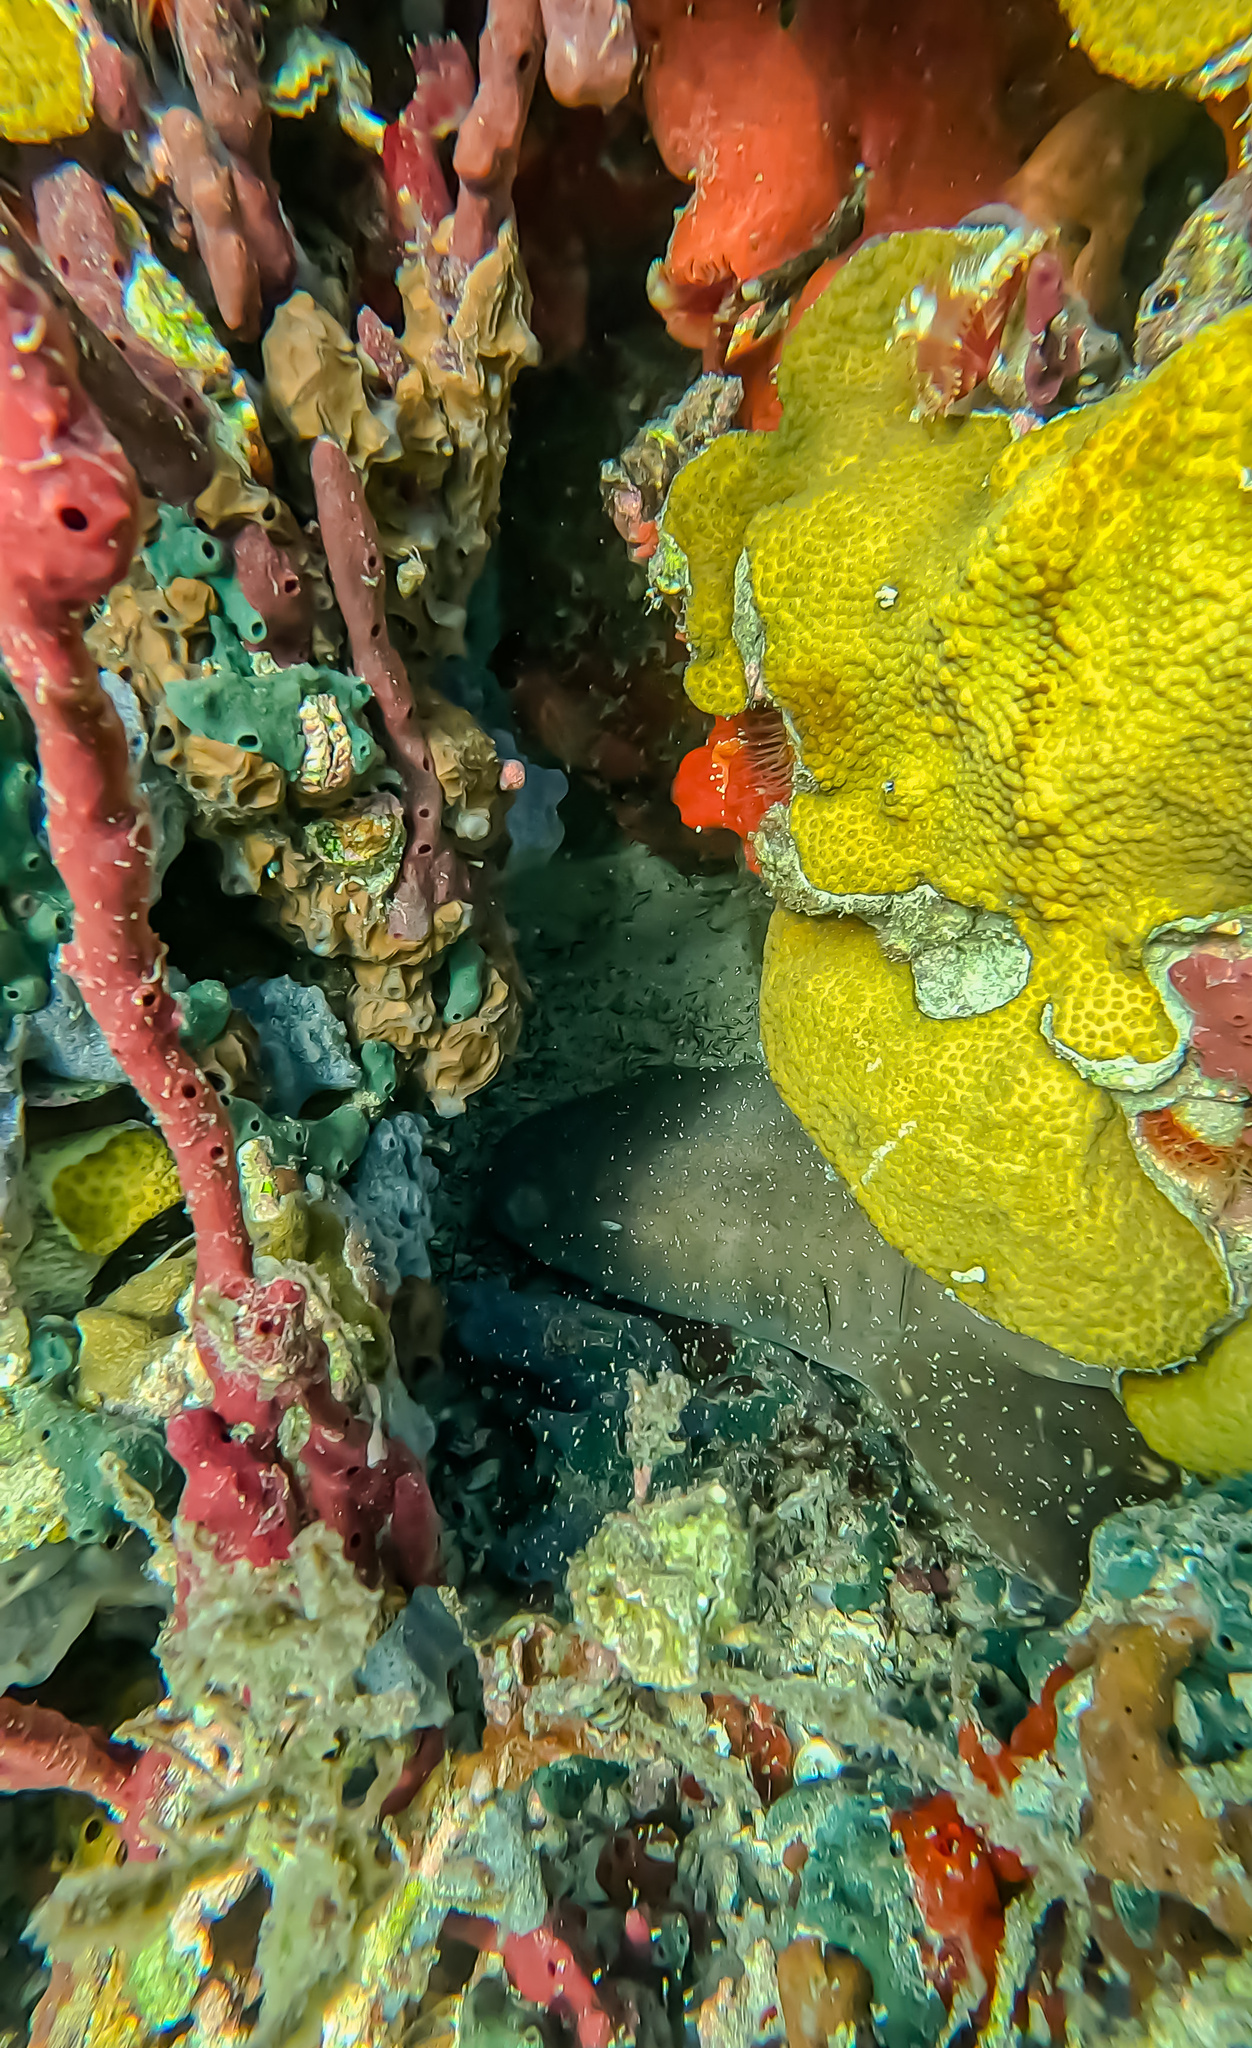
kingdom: Animalia
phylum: Chordata
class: Elasmobranchii
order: Orectolobiformes
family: Ginglymostomatidae
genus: Ginglymostoma
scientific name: Ginglymostoma cirratum
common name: Nurse shark
